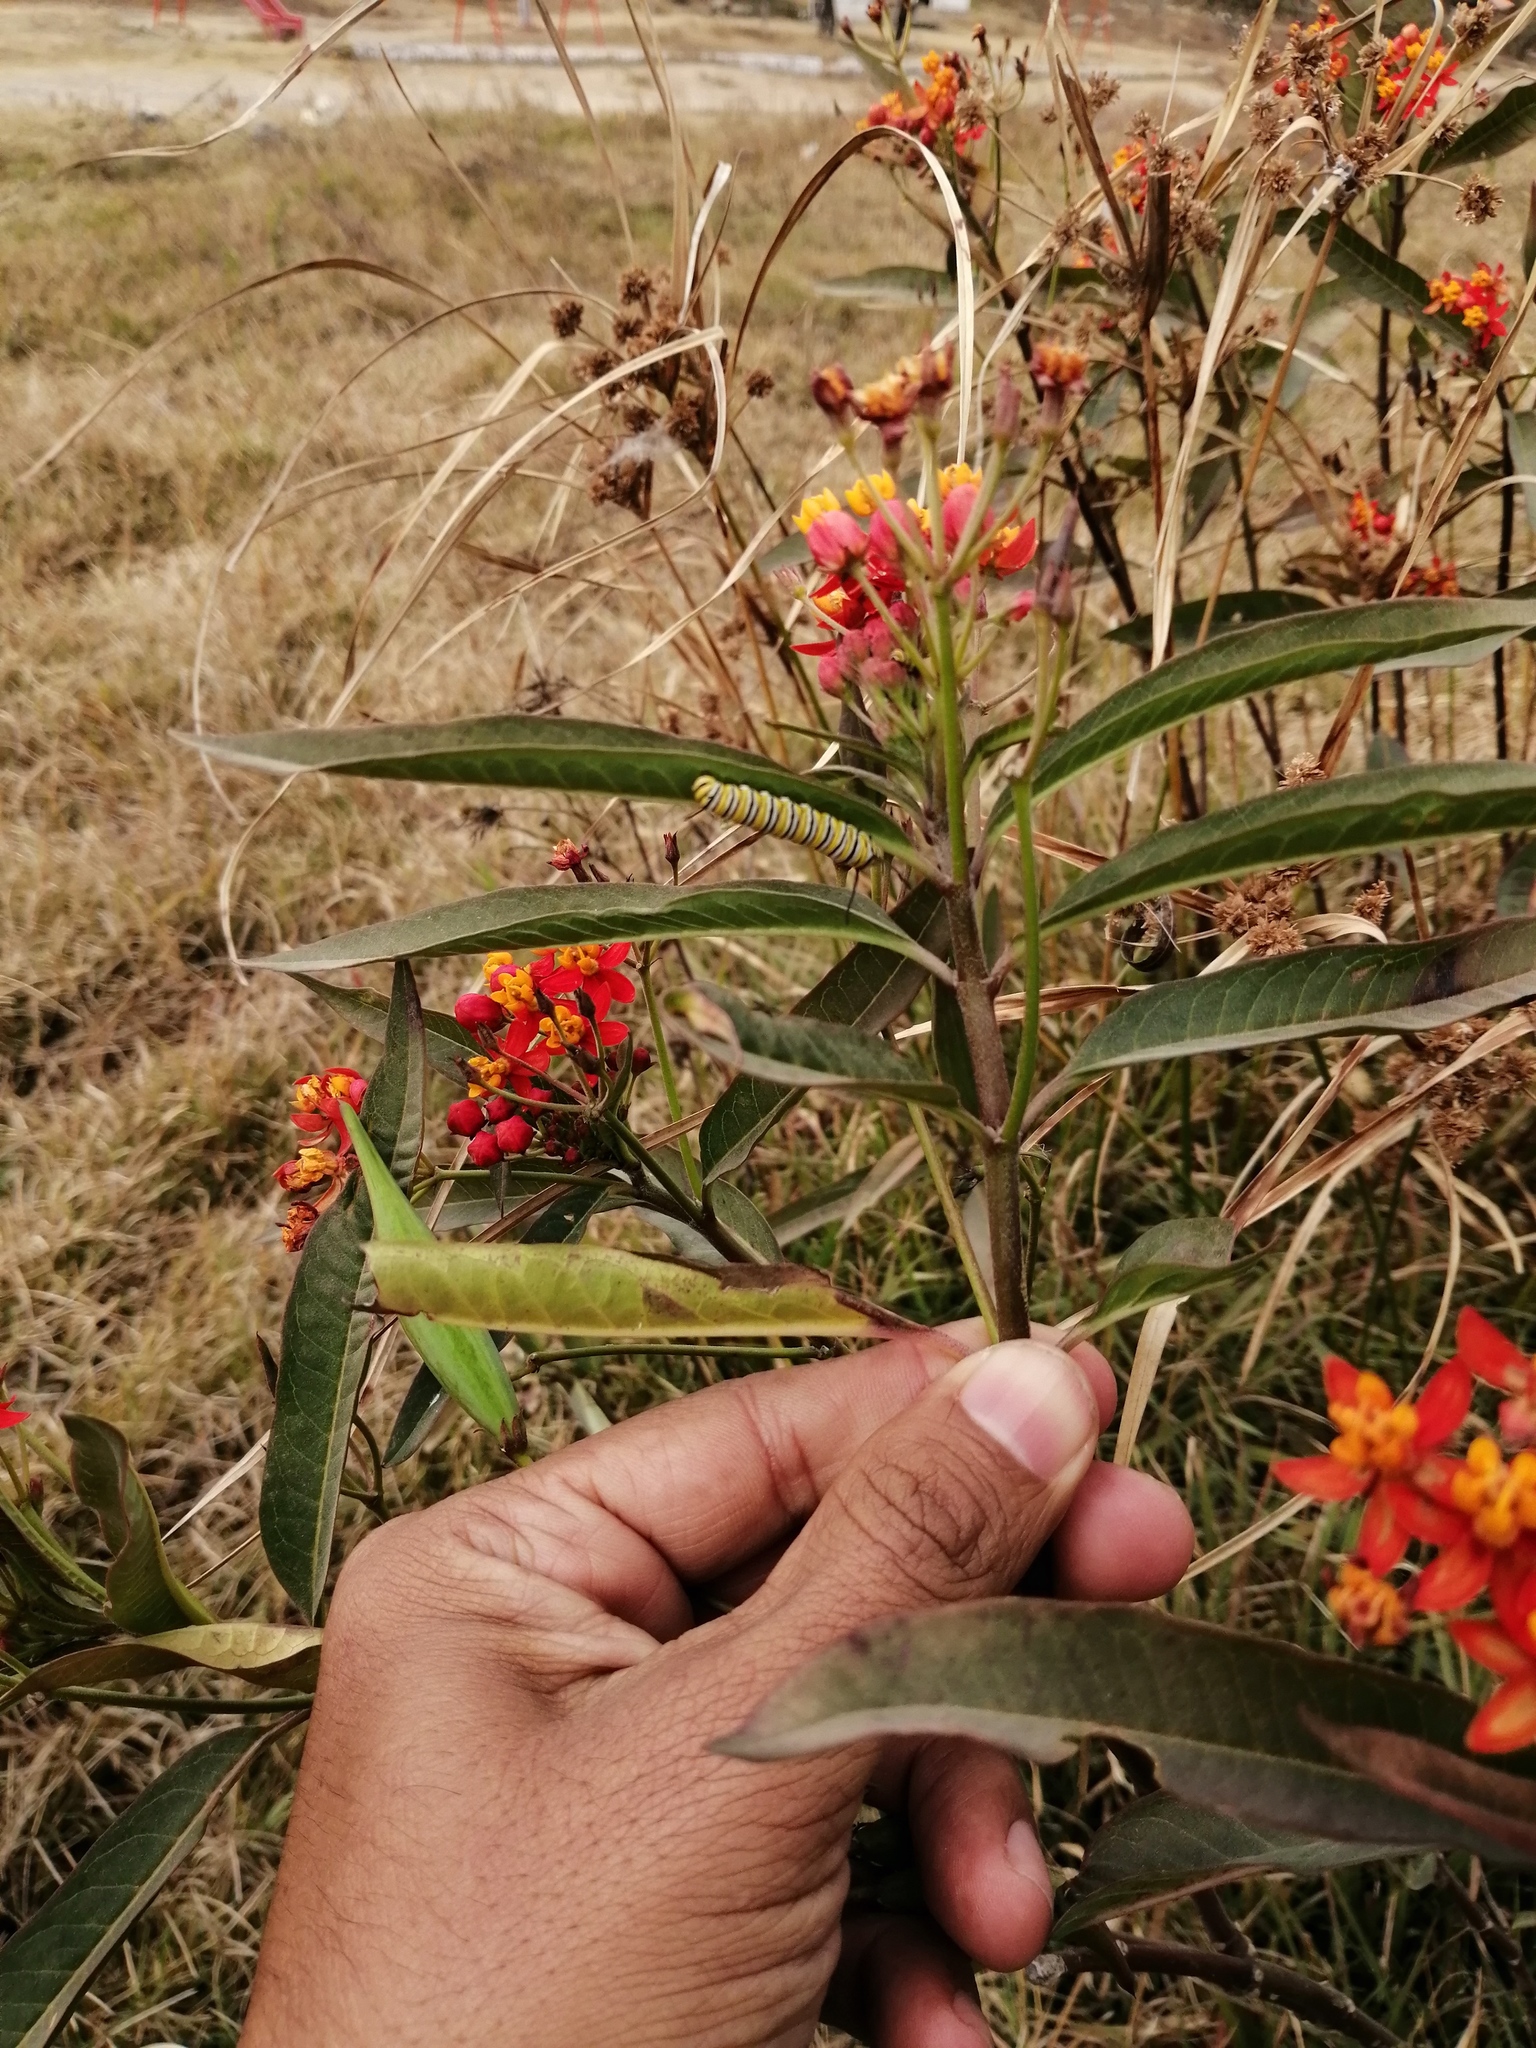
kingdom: Animalia
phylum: Arthropoda
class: Insecta
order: Lepidoptera
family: Nymphalidae
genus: Danaus
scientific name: Danaus plexippus
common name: Monarch
